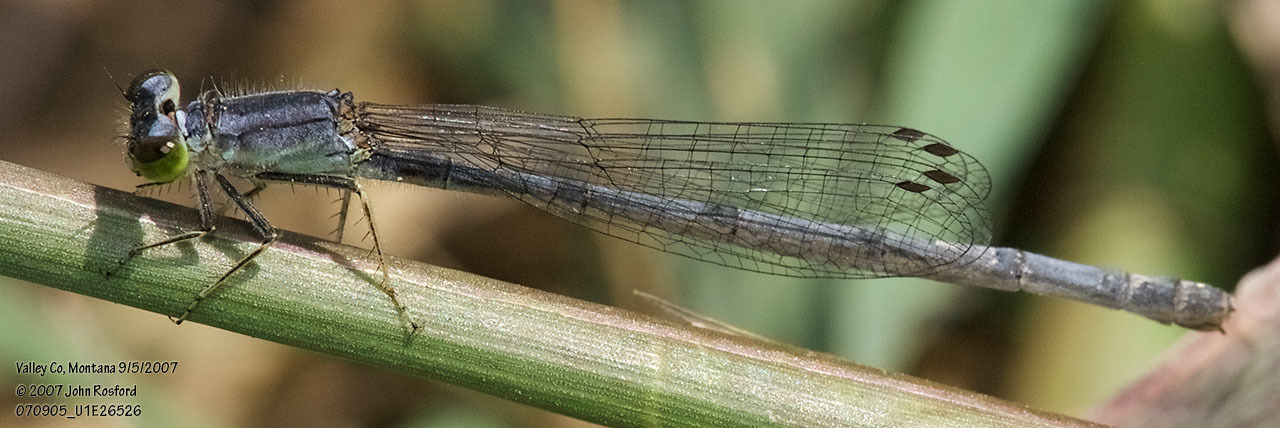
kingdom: Animalia
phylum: Arthropoda
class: Insecta
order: Odonata
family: Coenagrionidae
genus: Ischnura
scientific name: Ischnura verticalis
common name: Eastern forktail
